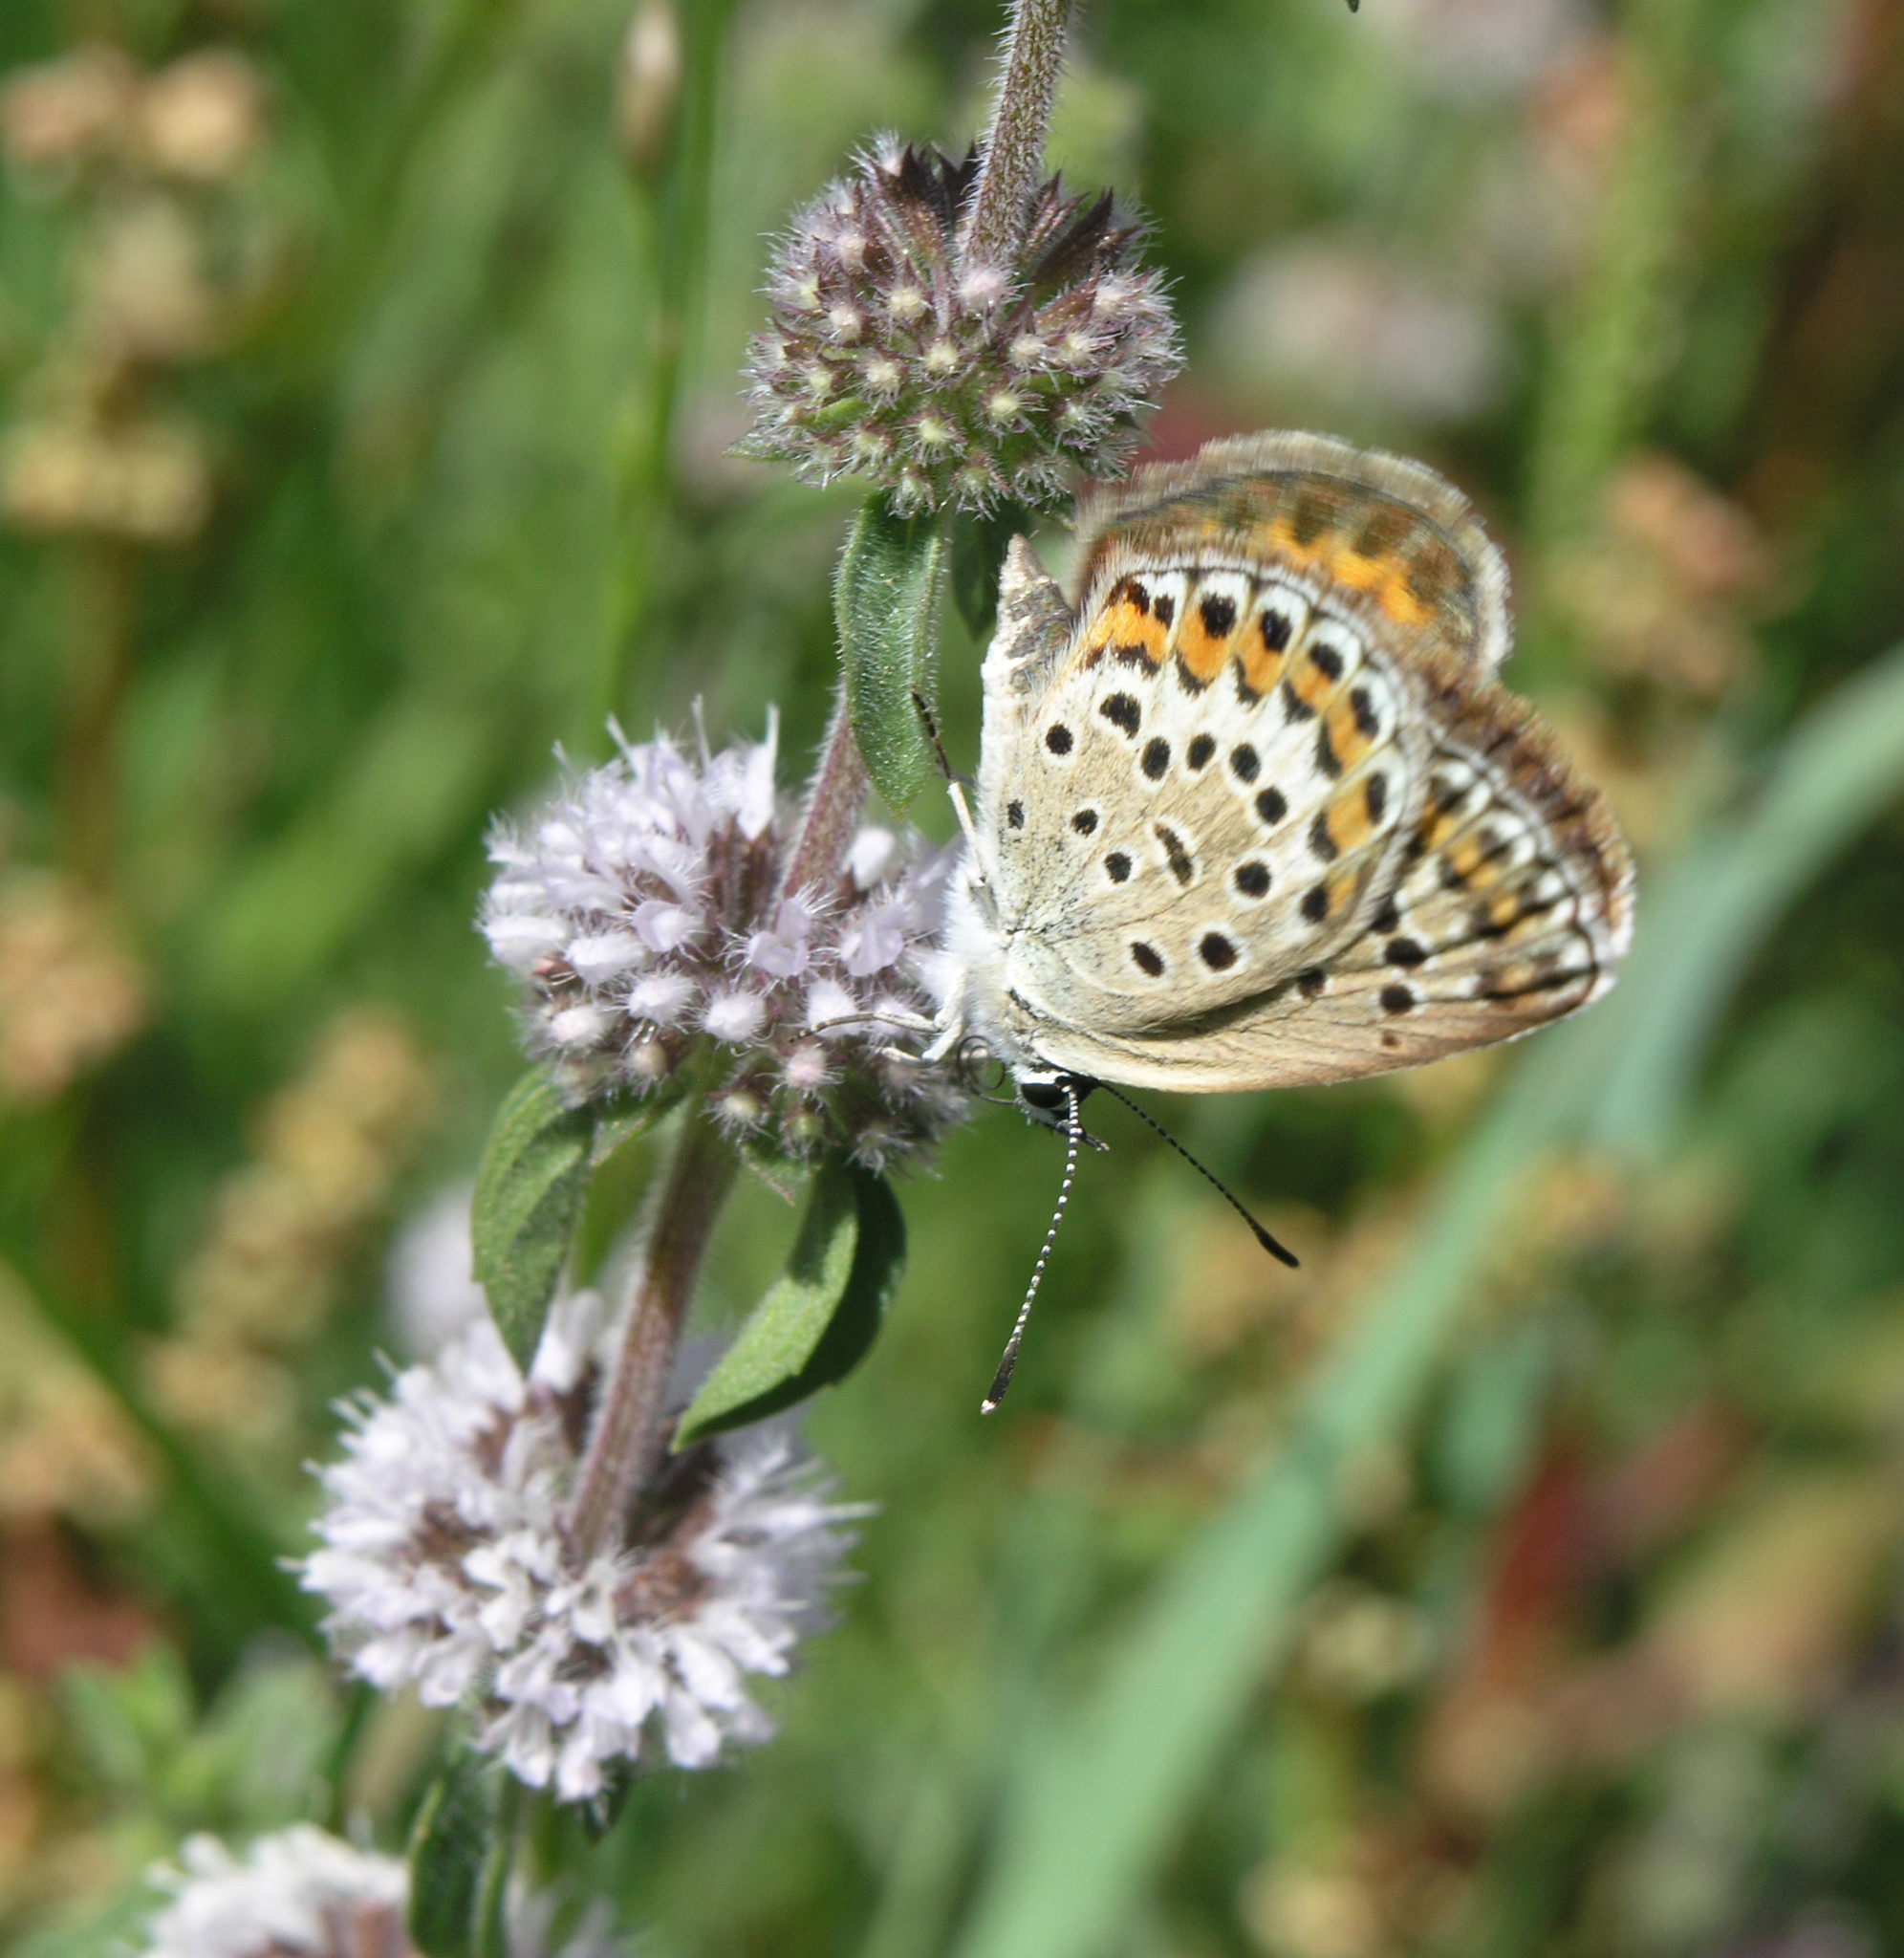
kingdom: Plantae
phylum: Tracheophyta
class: Magnoliopsida
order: Lamiales
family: Lamiaceae
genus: Mentha
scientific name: Mentha pulegium
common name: Pennyroyal
